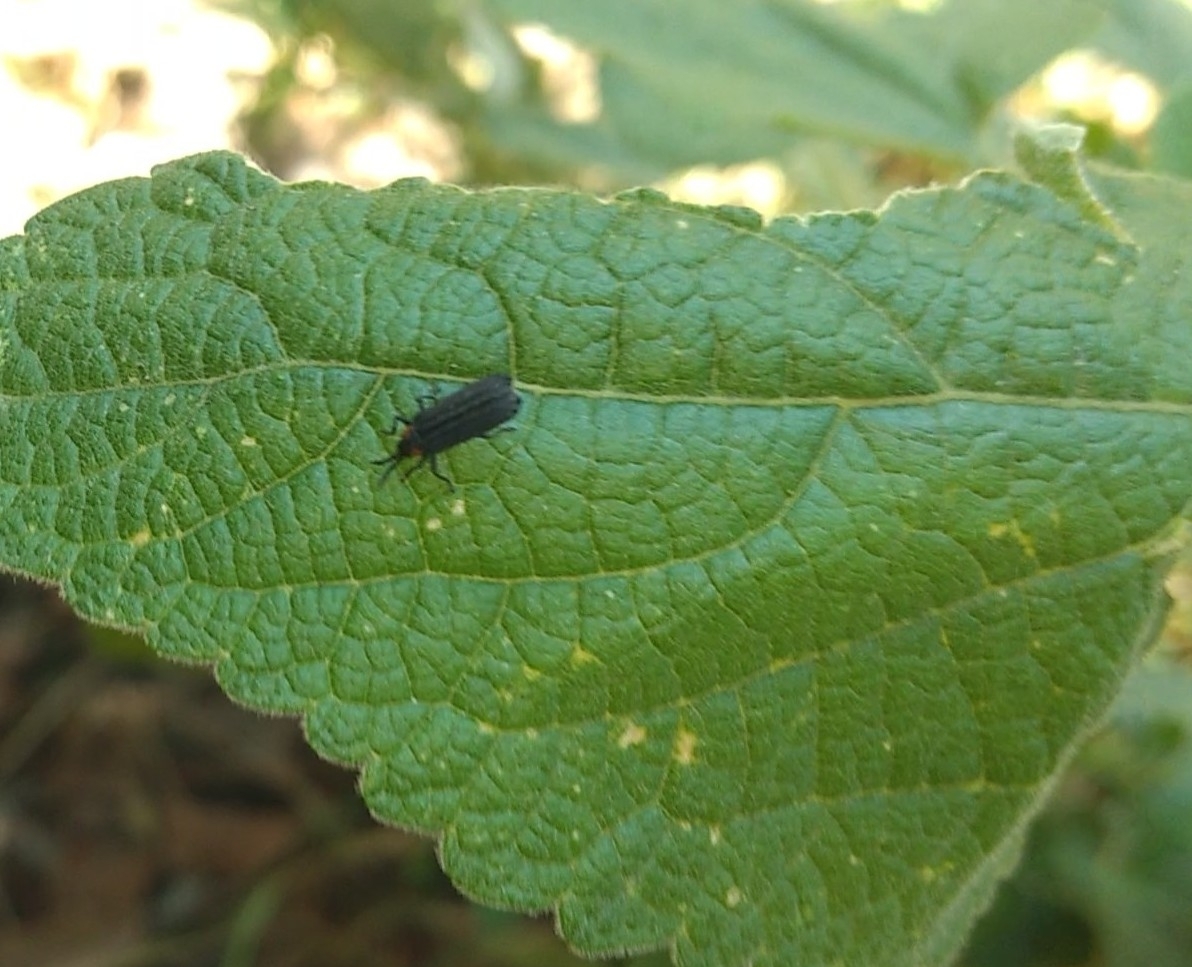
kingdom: Animalia
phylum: Arthropoda
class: Insecta
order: Coleoptera
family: Chrysomelidae
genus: Pentispa
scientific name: Pentispa
